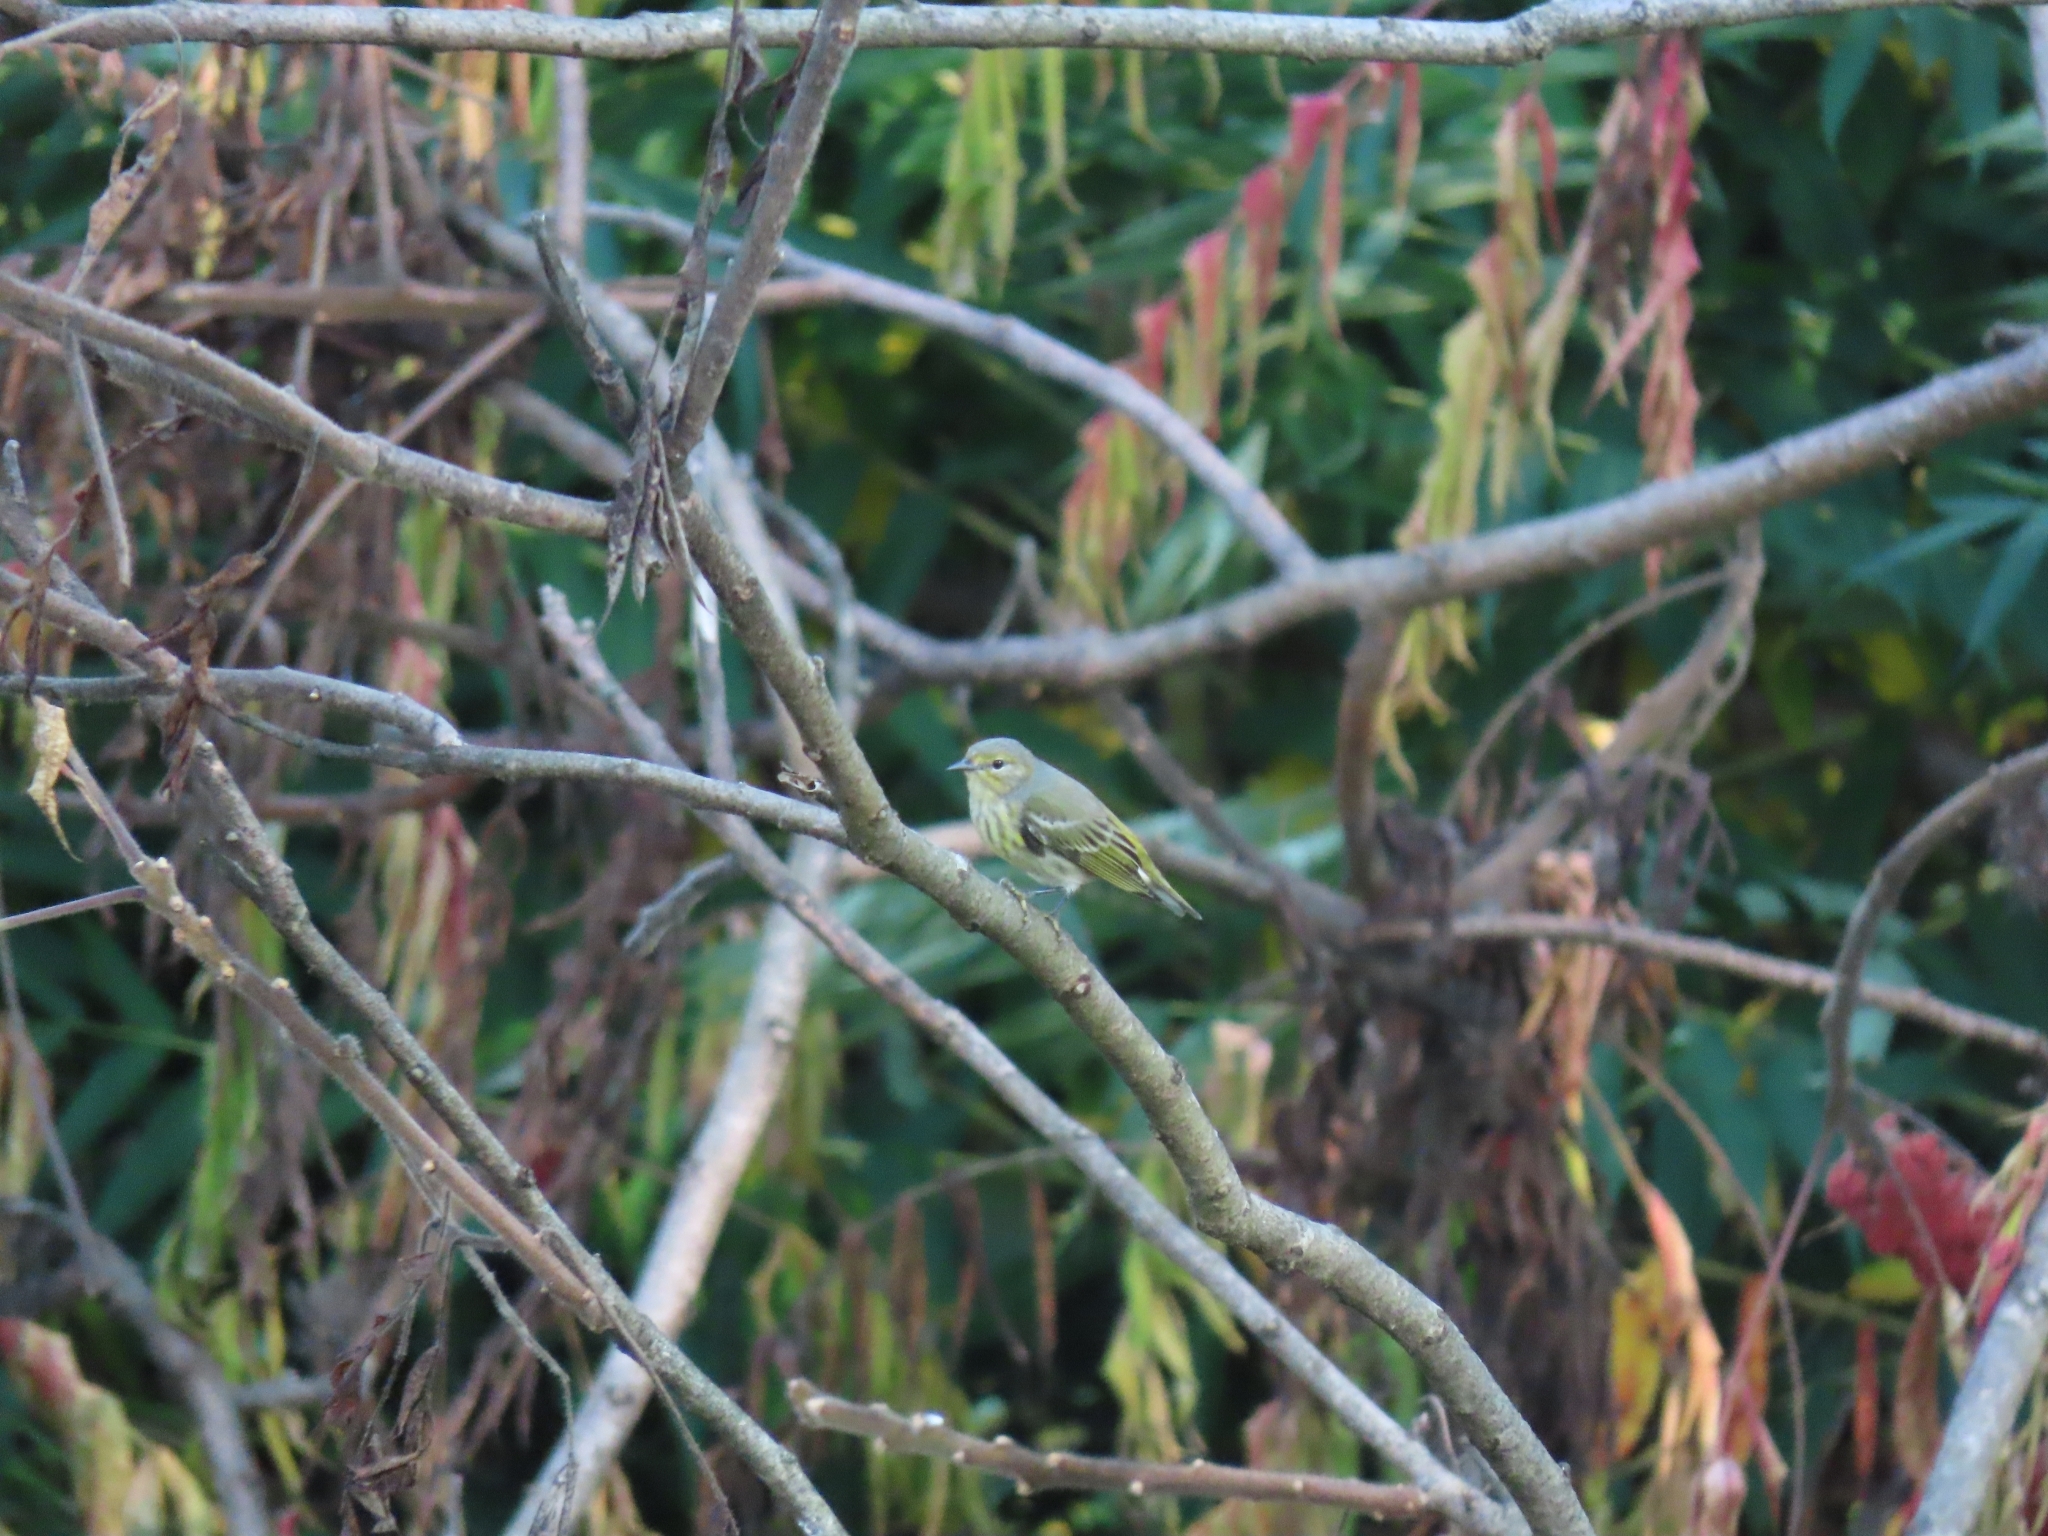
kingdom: Animalia
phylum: Chordata
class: Aves
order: Passeriformes
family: Parulidae
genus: Setophaga
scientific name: Setophaga tigrina
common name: Cape may warbler
